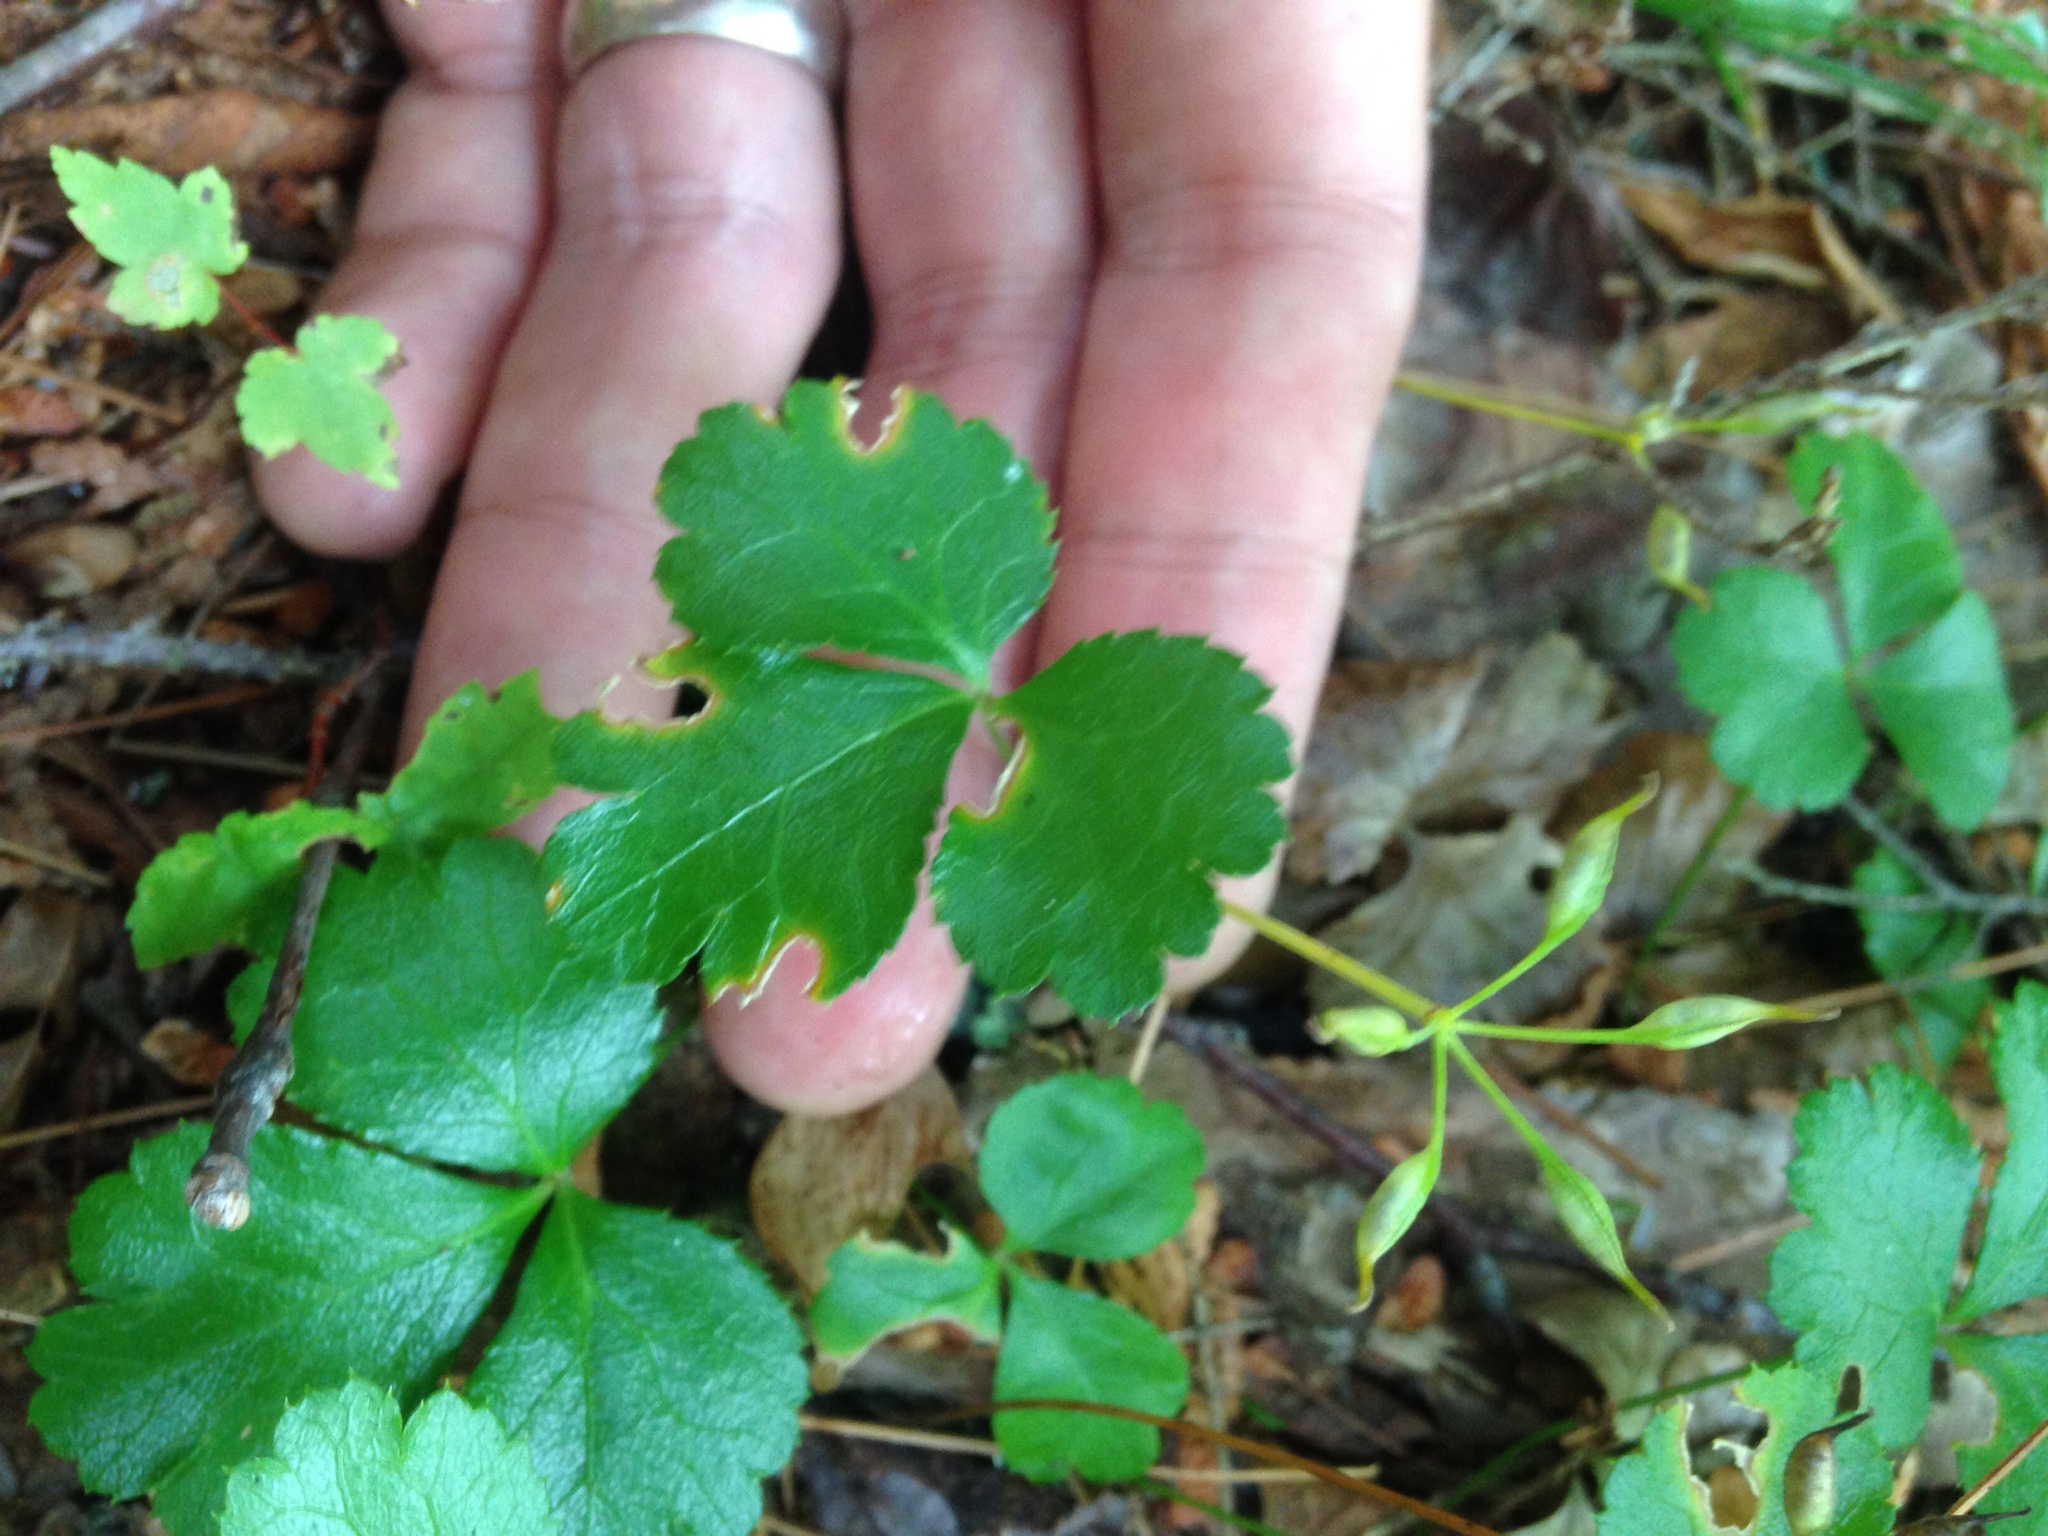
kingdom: Plantae
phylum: Tracheophyta
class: Magnoliopsida
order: Ranunculales
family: Ranunculaceae
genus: Coptis
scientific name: Coptis trifolia
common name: Canker-root
